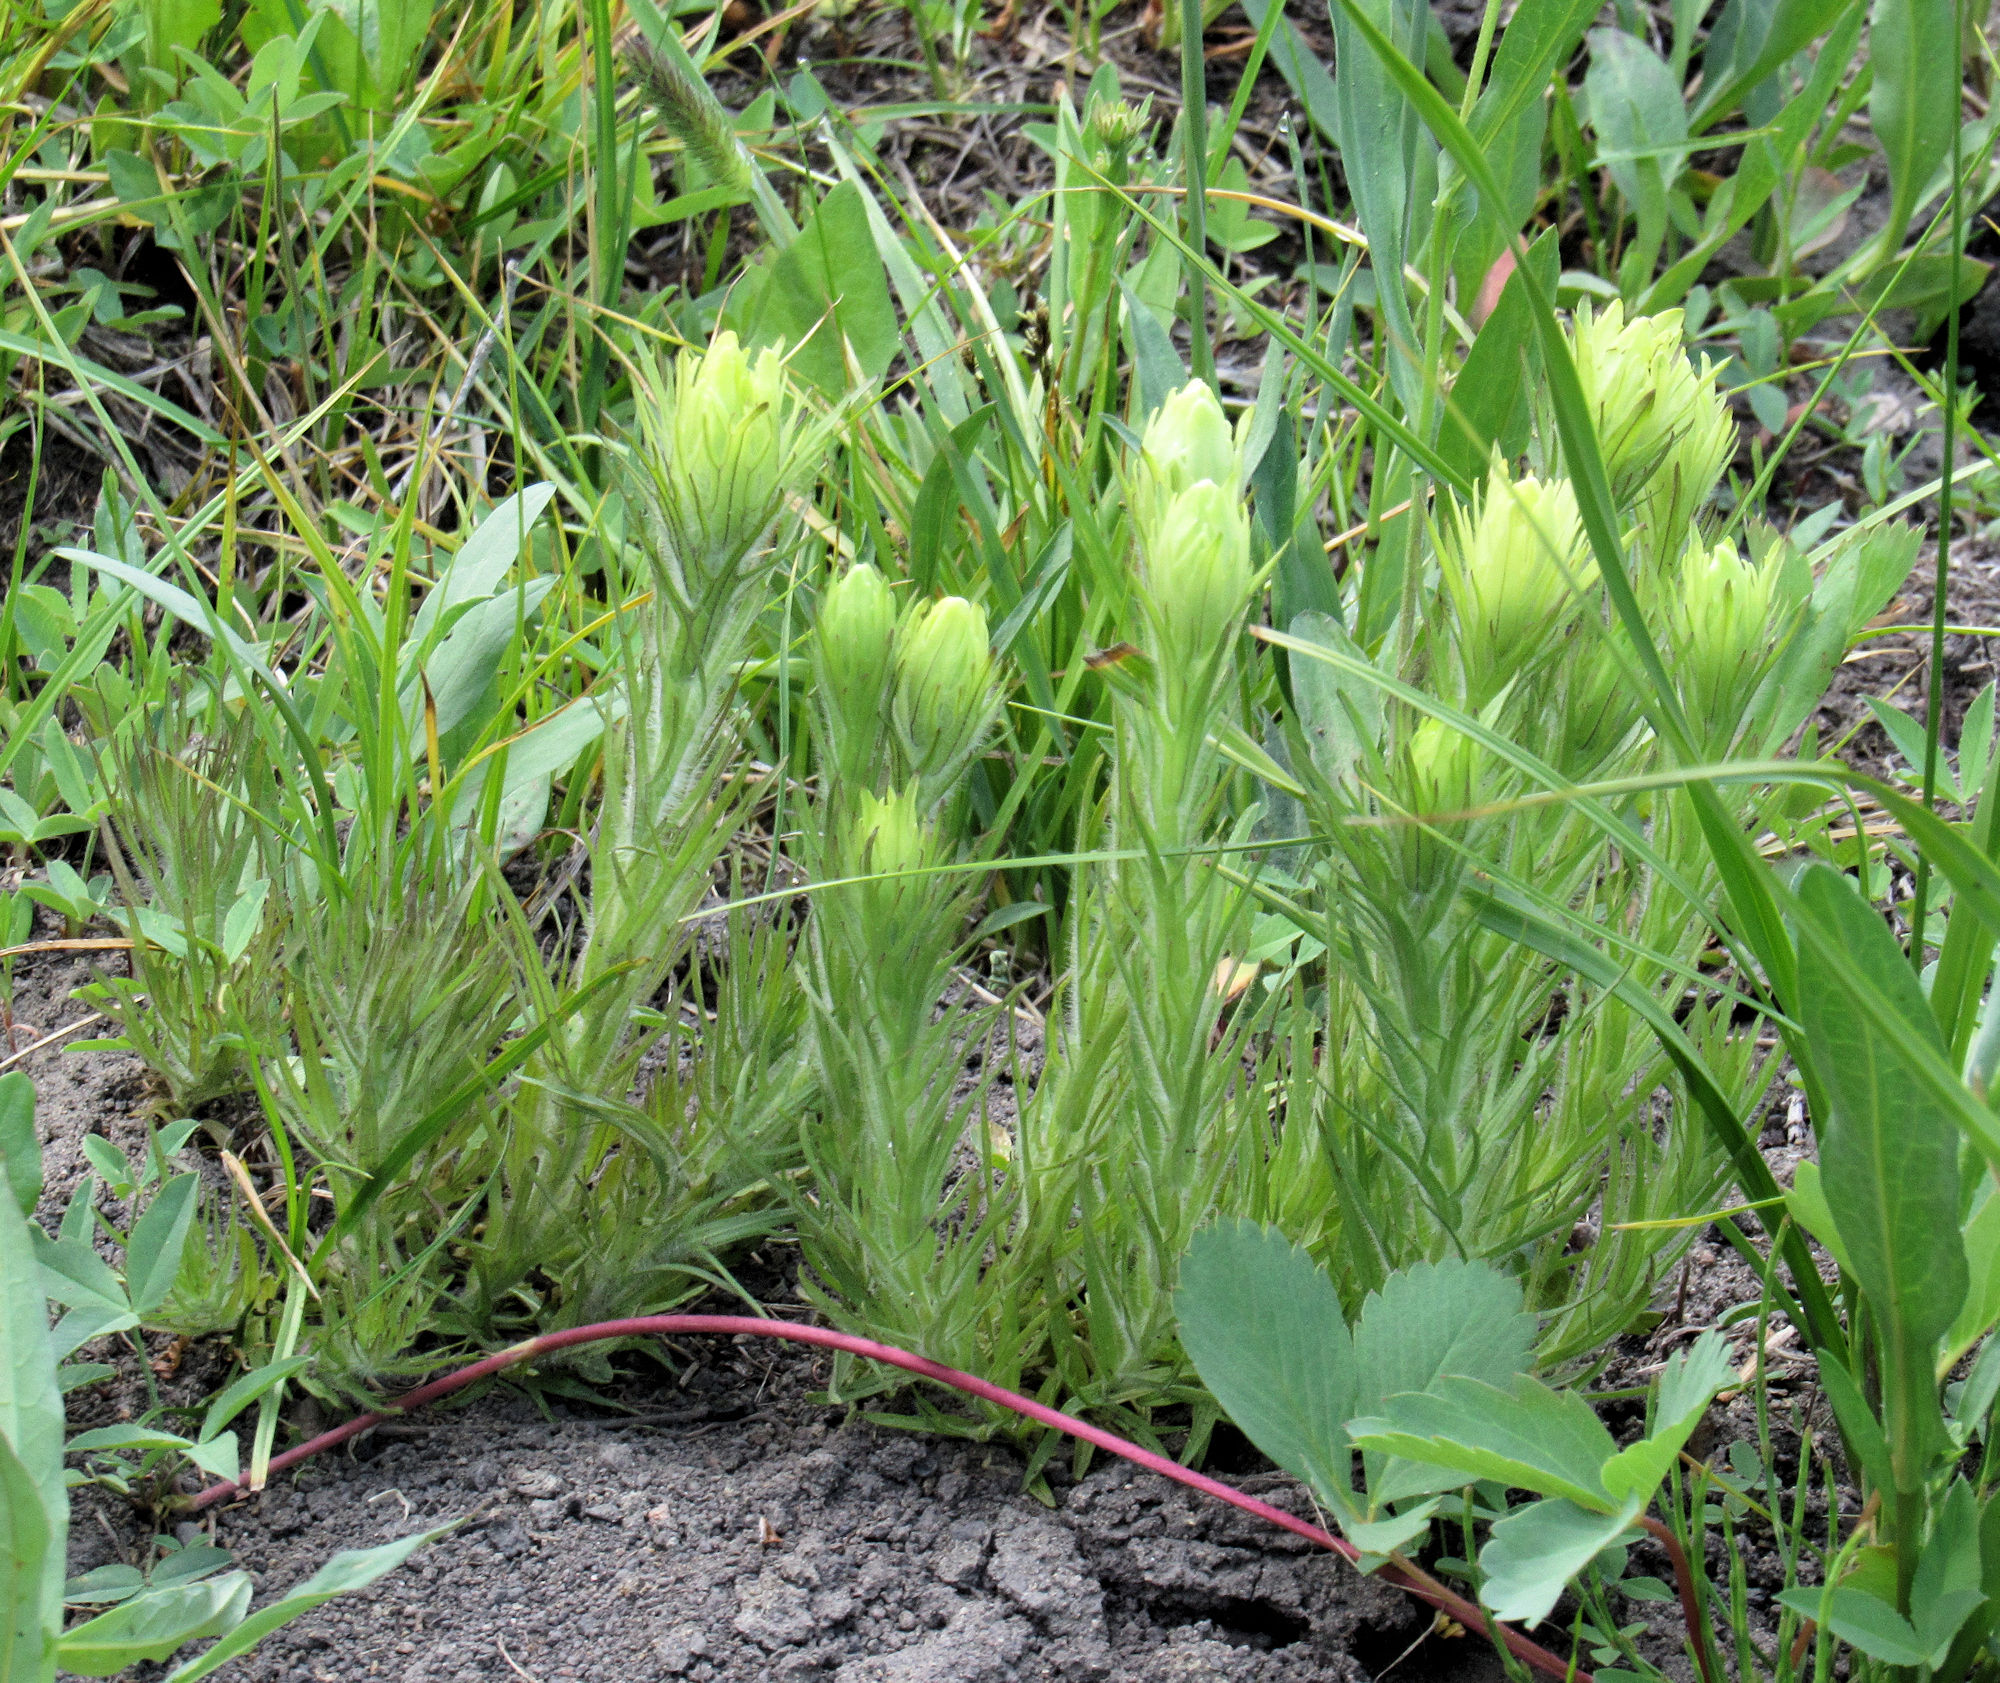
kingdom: Plantae
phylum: Tracheophyta
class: Magnoliopsida
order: Lamiales
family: Orobanchaceae
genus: Castilleja
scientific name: Castilleja cusickii
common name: Cusick's paintbrush
